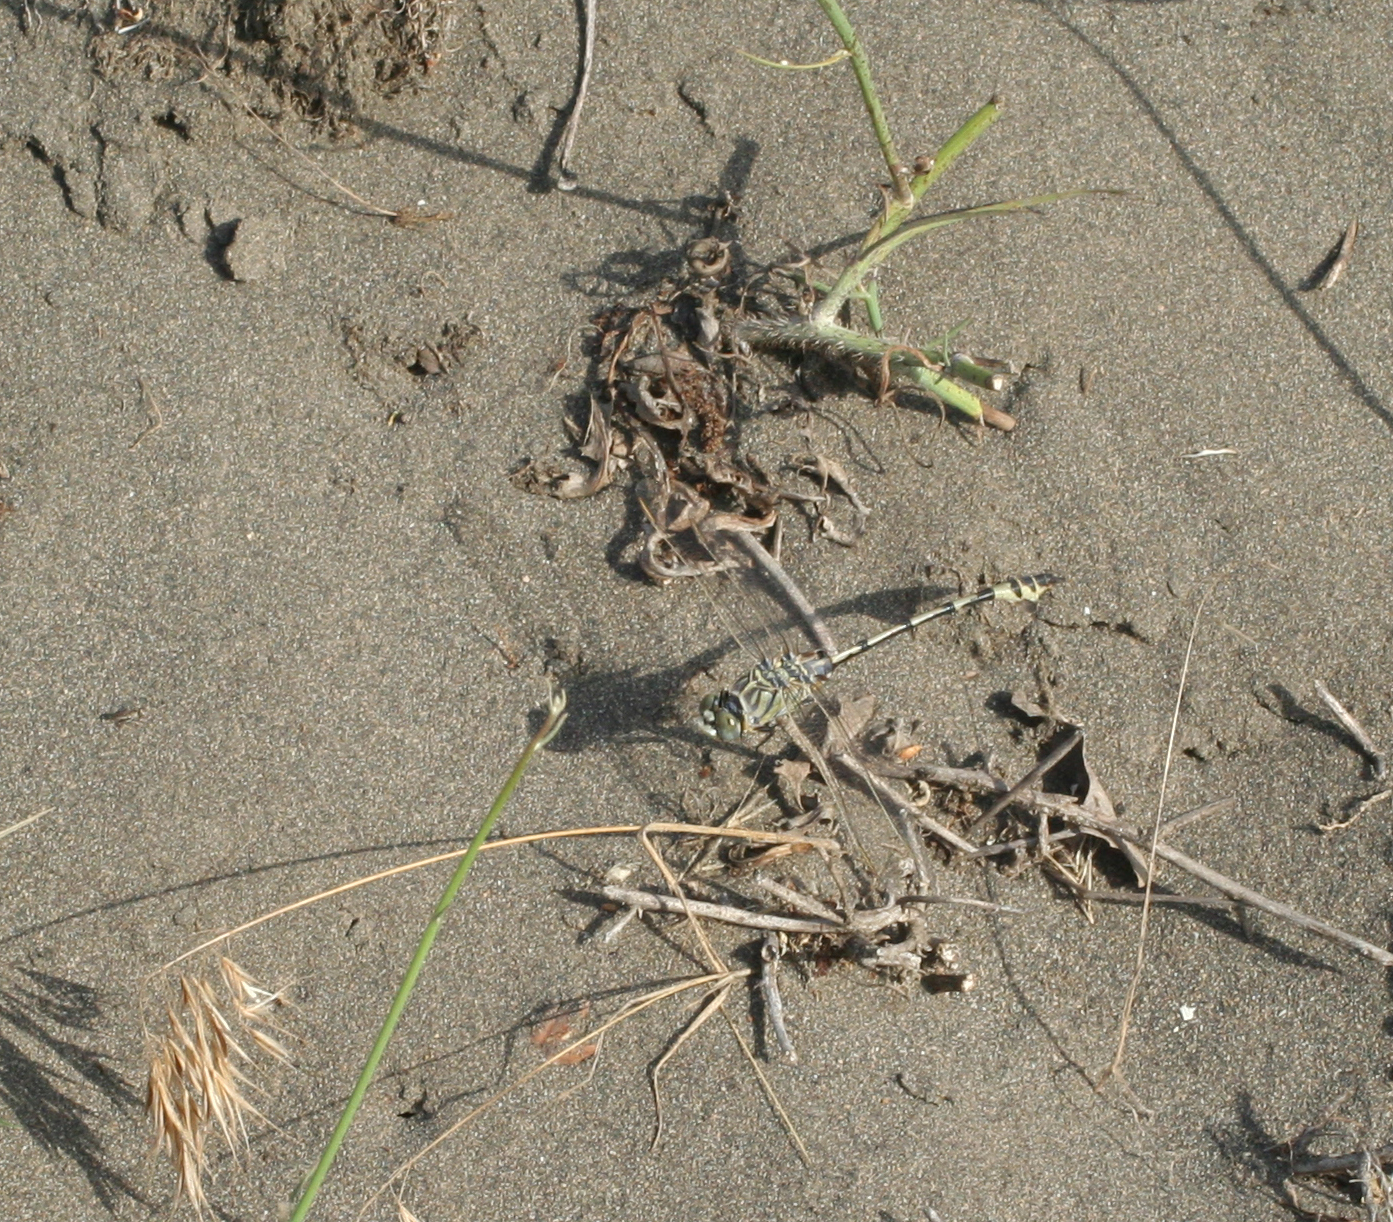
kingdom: Animalia
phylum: Arthropoda
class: Insecta
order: Odonata
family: Gomphidae
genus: Lindenia
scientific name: Lindenia tetraphylla
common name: Bladetail
